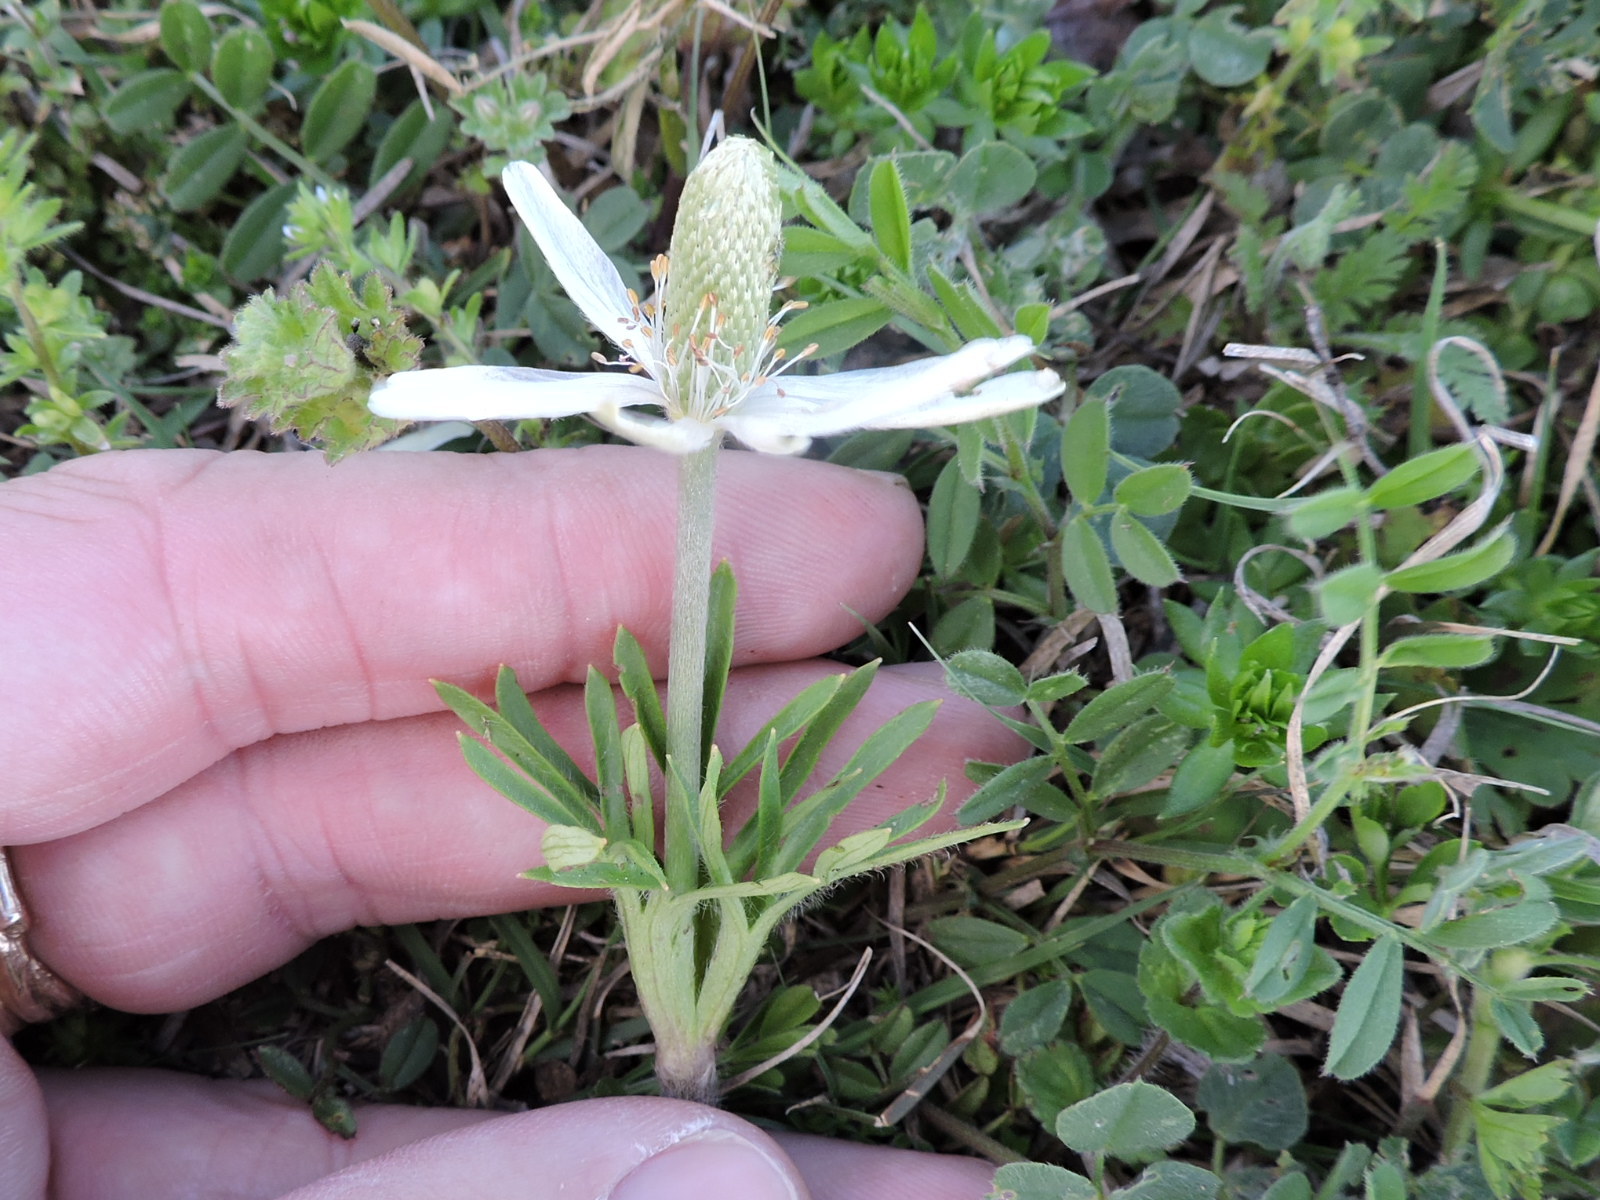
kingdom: Plantae
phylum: Tracheophyta
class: Magnoliopsida
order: Ranunculales
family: Ranunculaceae
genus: Anemone
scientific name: Anemone berlandieri
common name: Ten-petal anemone
